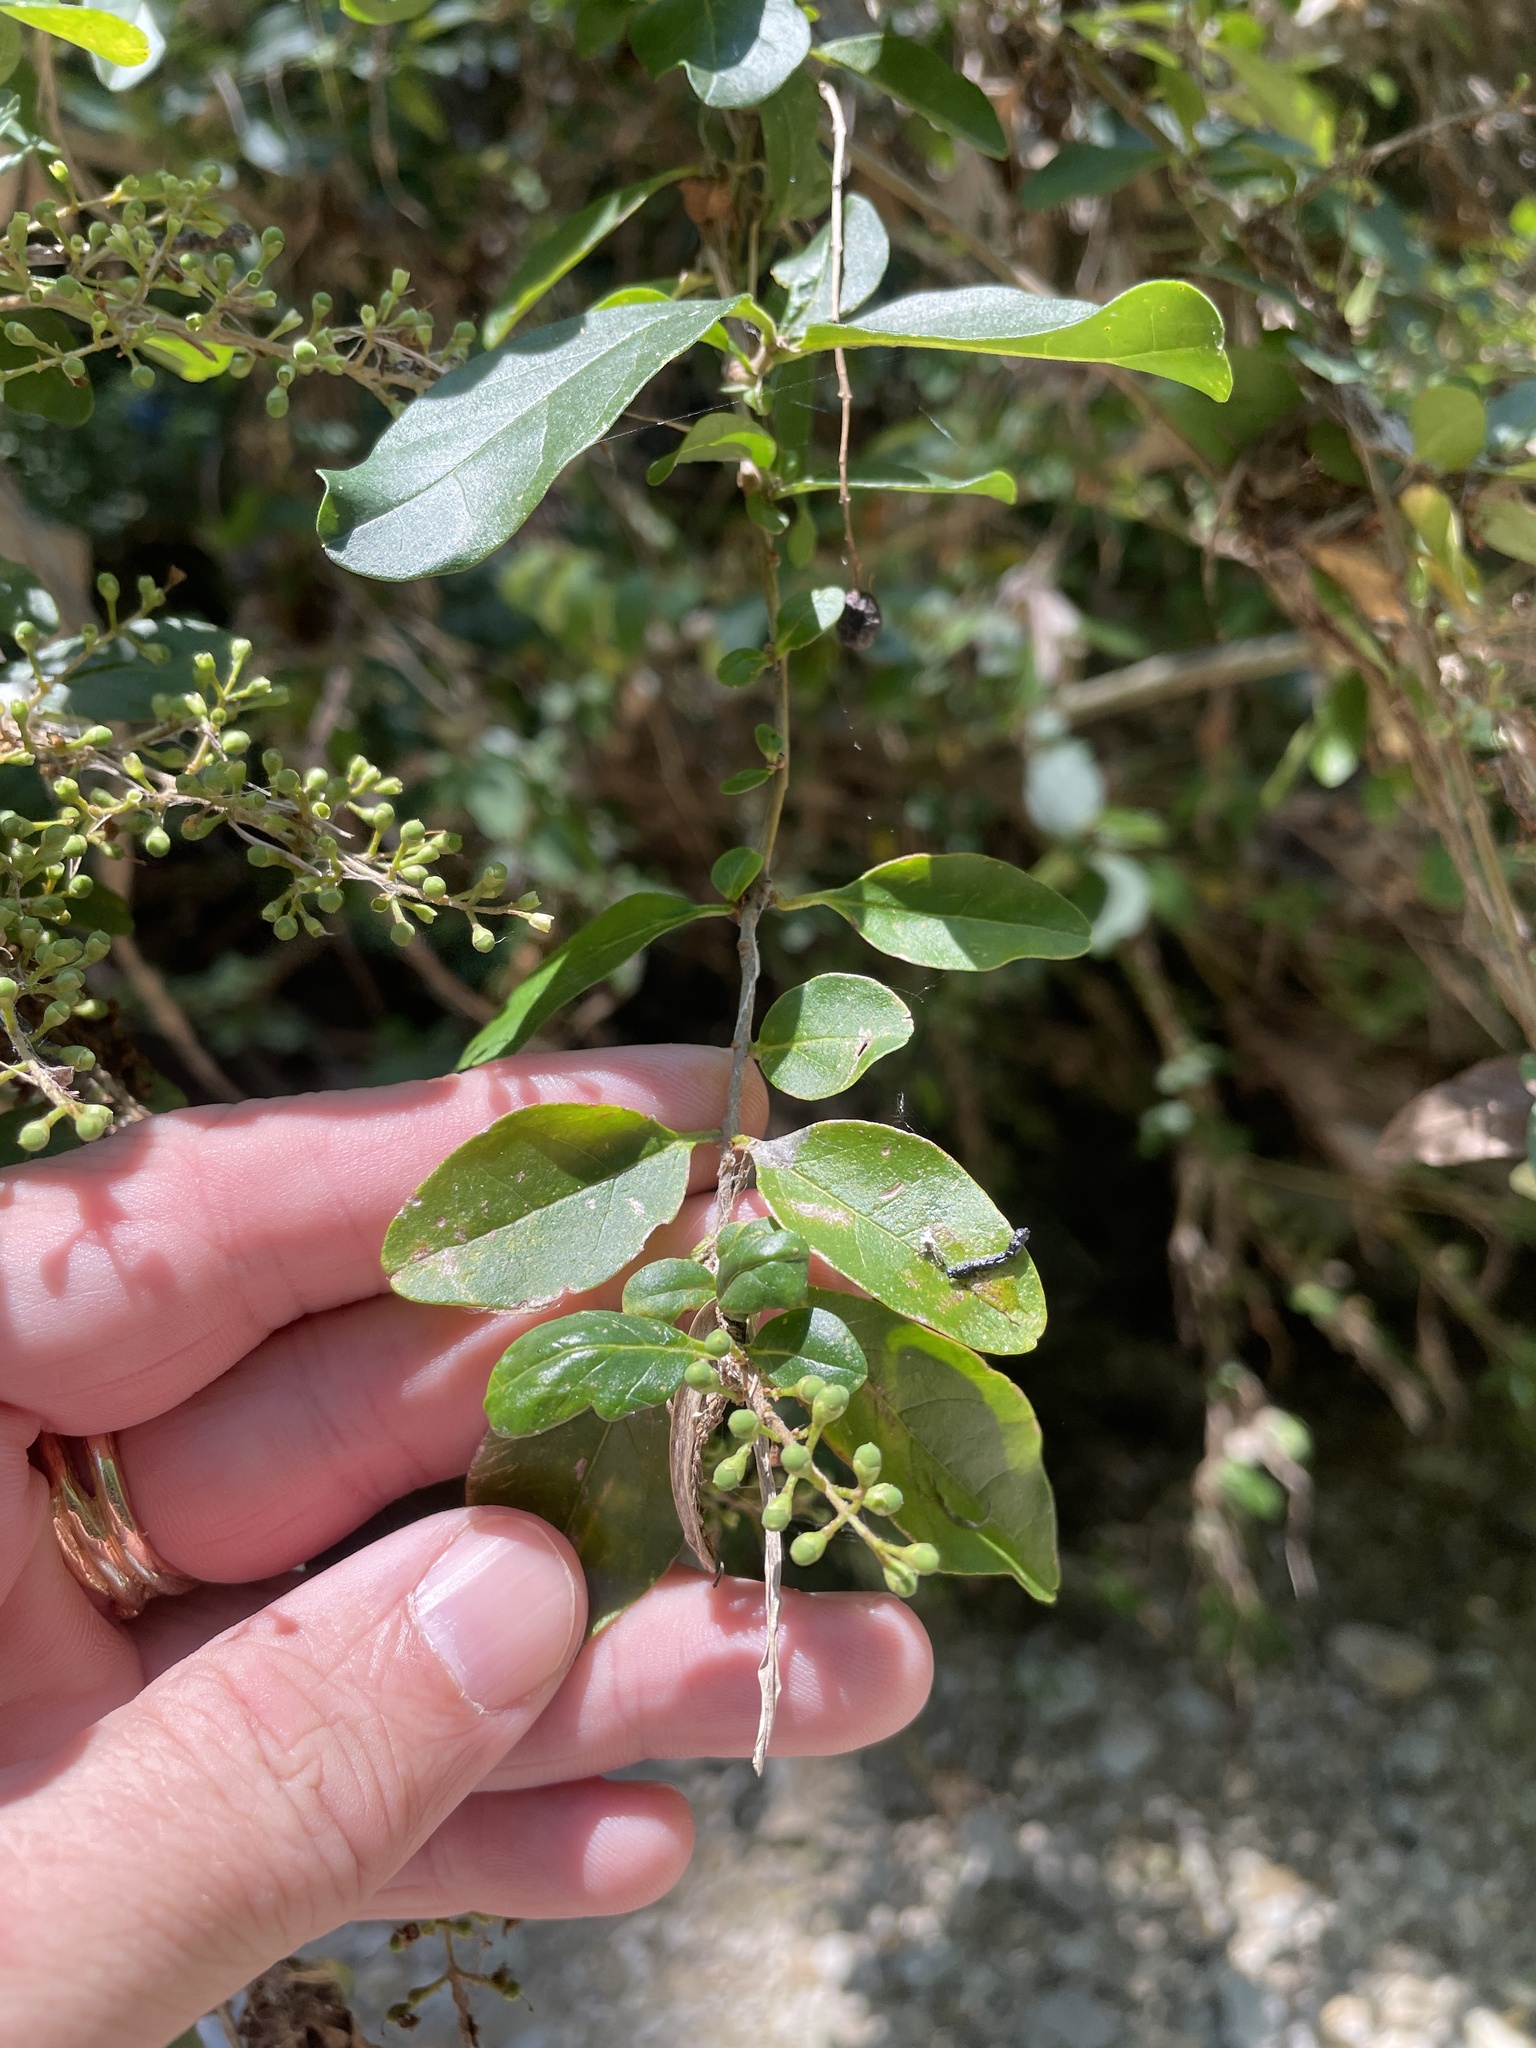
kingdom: Plantae
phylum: Tracheophyta
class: Magnoliopsida
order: Lamiales
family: Oleaceae
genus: Ligustrum
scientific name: Ligustrum sinense
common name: Chinese privet
